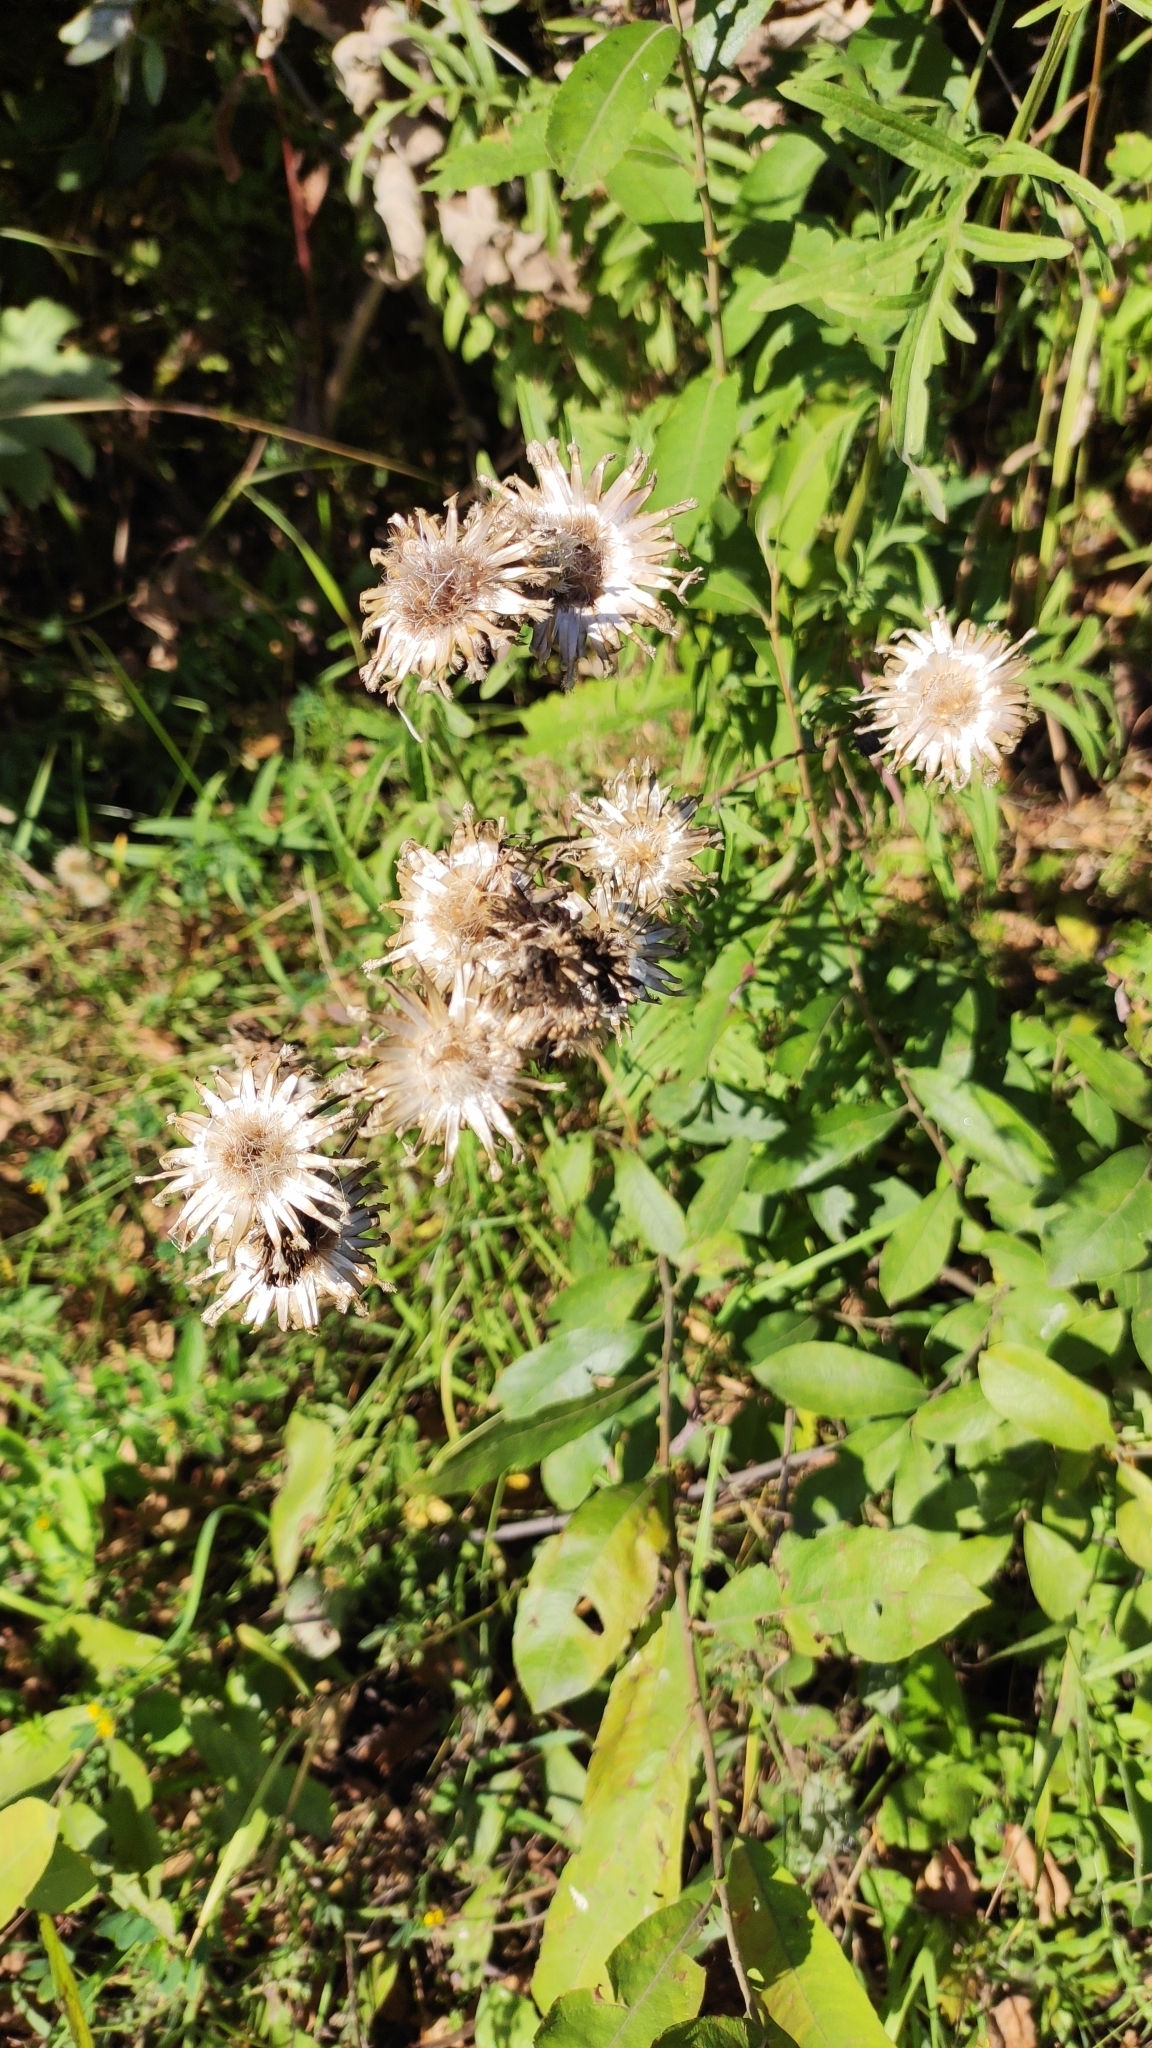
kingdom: Plantae
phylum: Tracheophyta
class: Magnoliopsida
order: Asterales
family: Asteraceae
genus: Centaurea
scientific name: Centaurea scabiosa
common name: Greater knapweed
